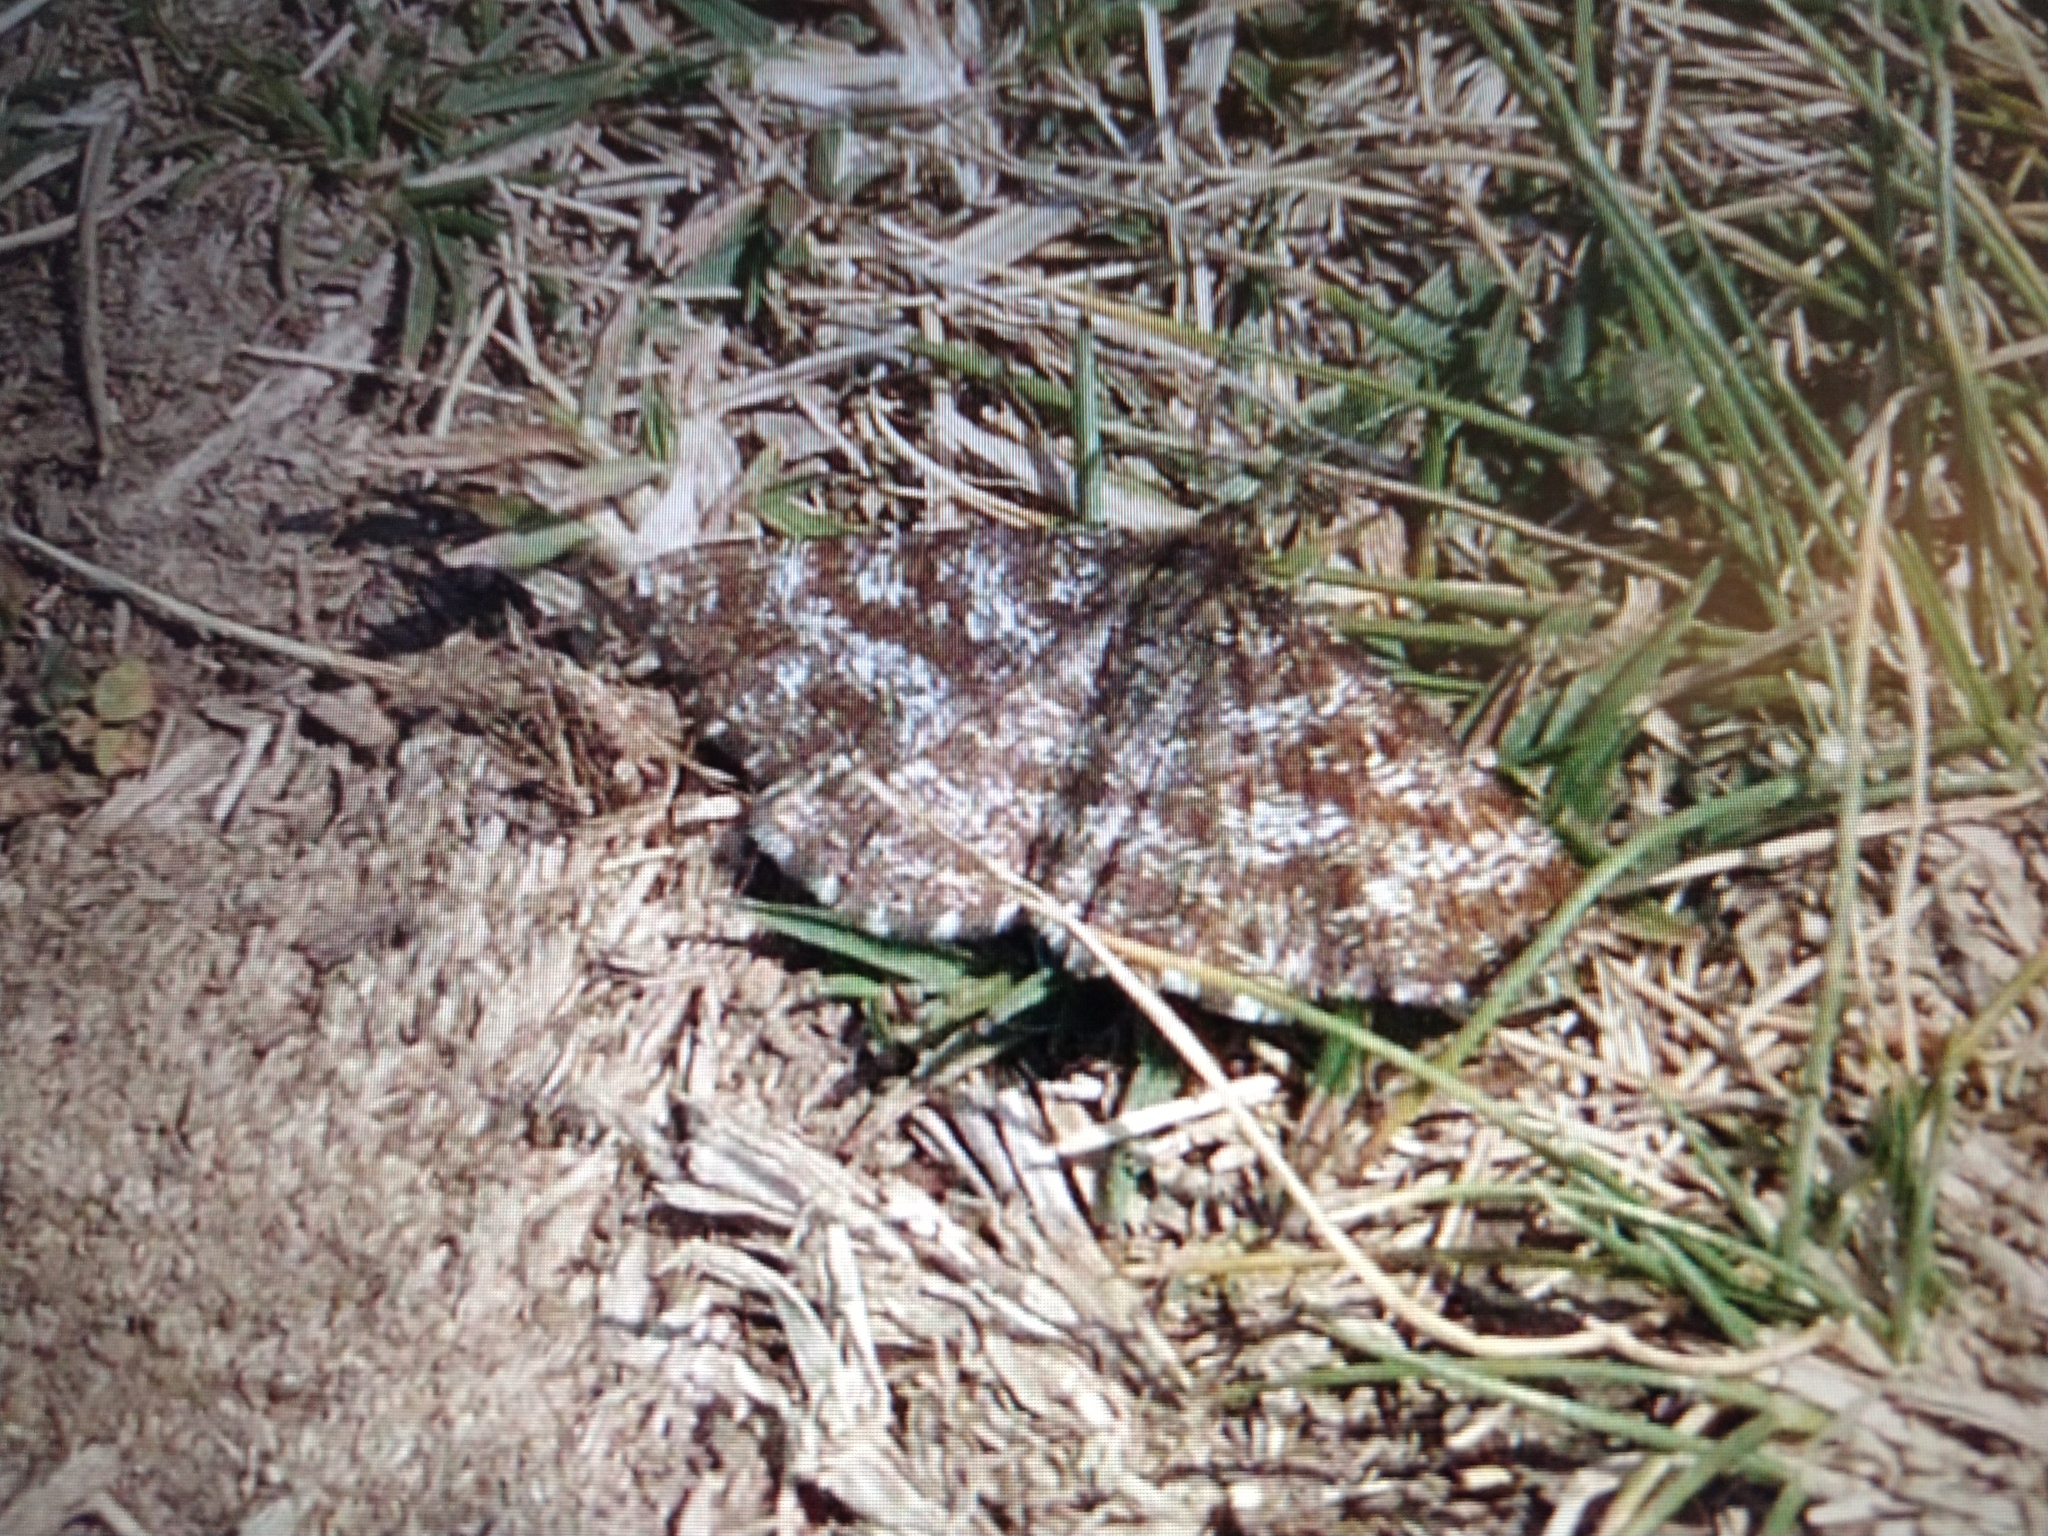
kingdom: Animalia
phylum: Arthropoda
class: Insecta
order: Lepidoptera
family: Geometridae
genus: Ematurga
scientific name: Ematurga atomaria
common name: Common heath
